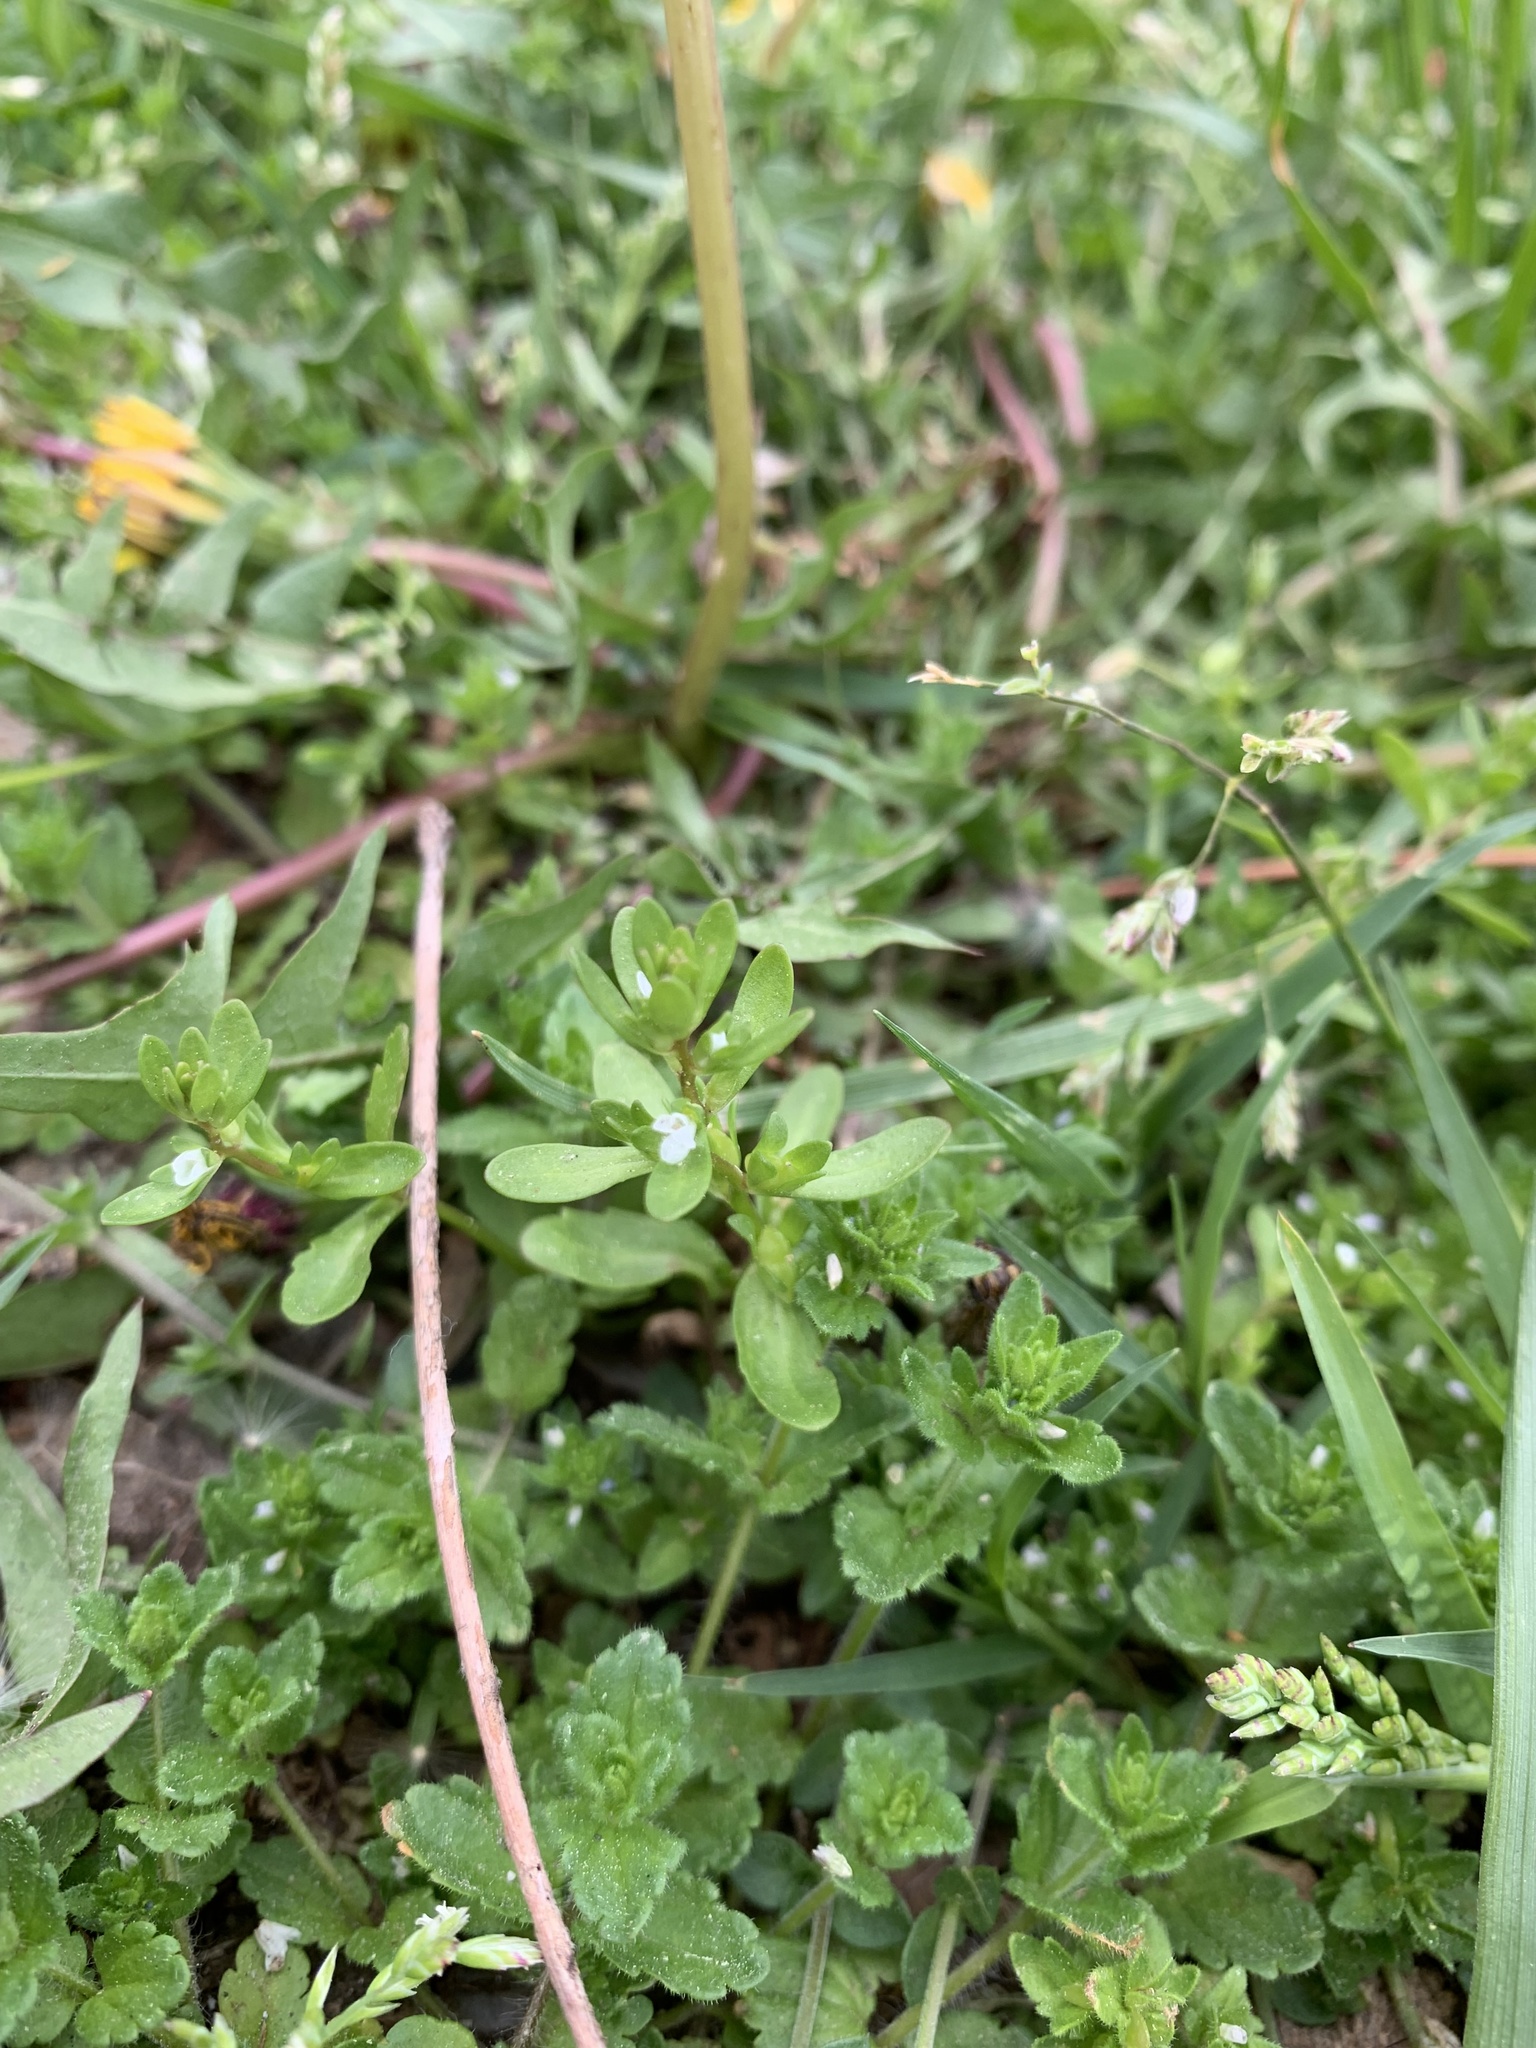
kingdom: Plantae
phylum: Tracheophyta
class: Magnoliopsida
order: Lamiales
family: Plantaginaceae
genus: Veronica
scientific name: Veronica peregrina
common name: Neckweed
